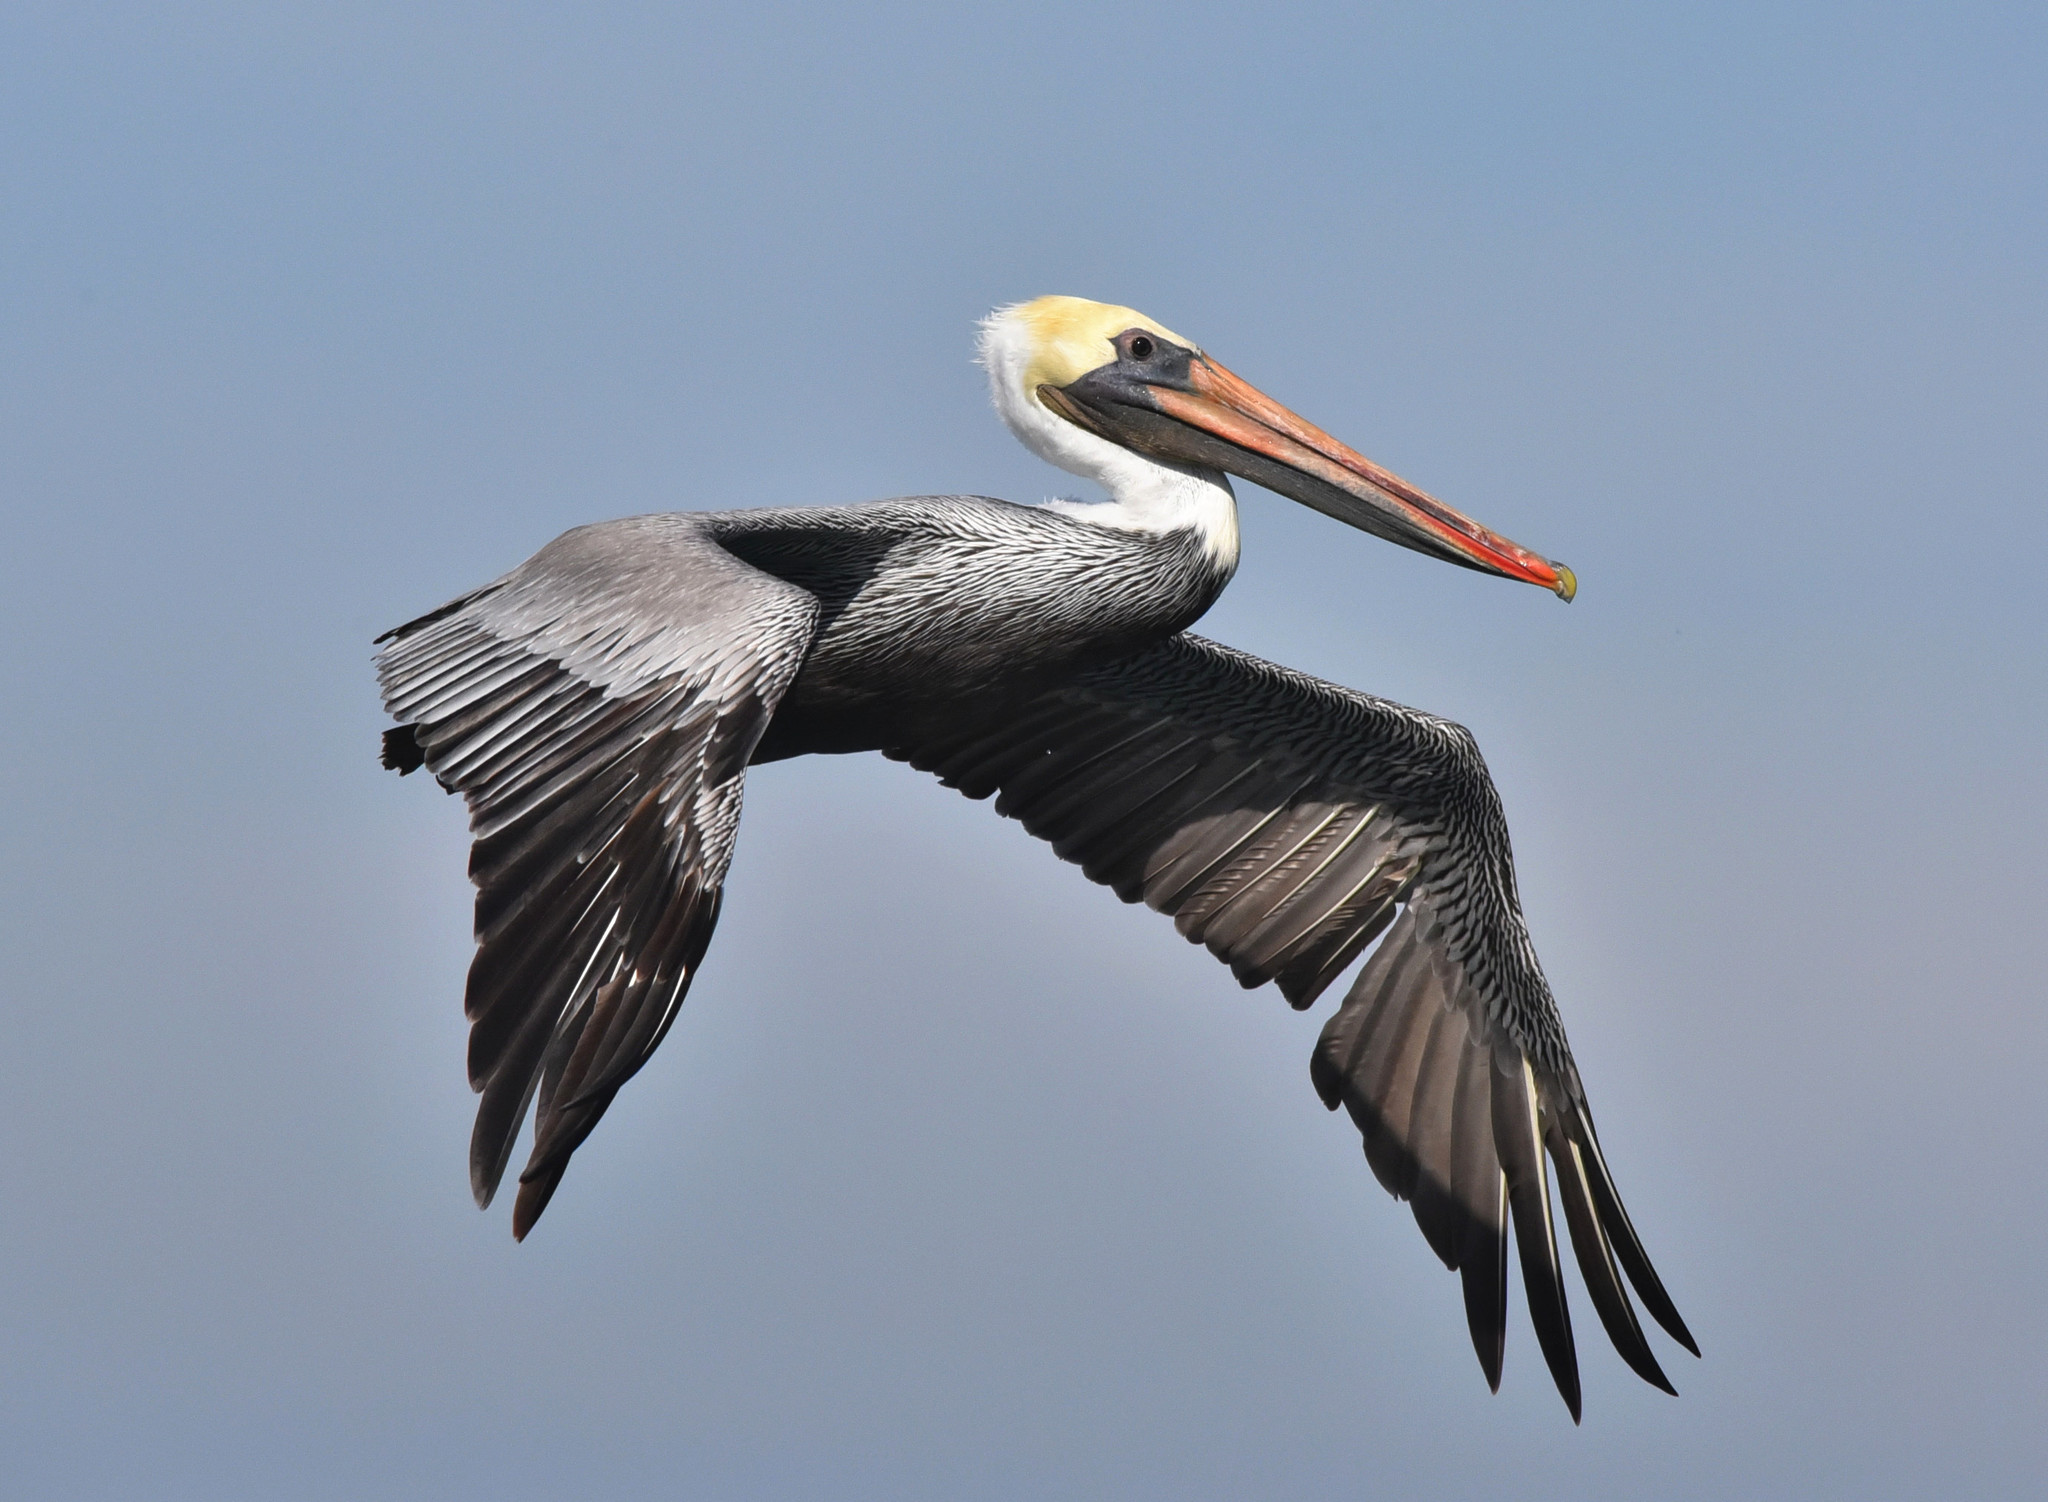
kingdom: Animalia
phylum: Chordata
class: Aves
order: Pelecaniformes
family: Pelecanidae
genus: Pelecanus
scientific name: Pelecanus occidentalis
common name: Brown pelican
